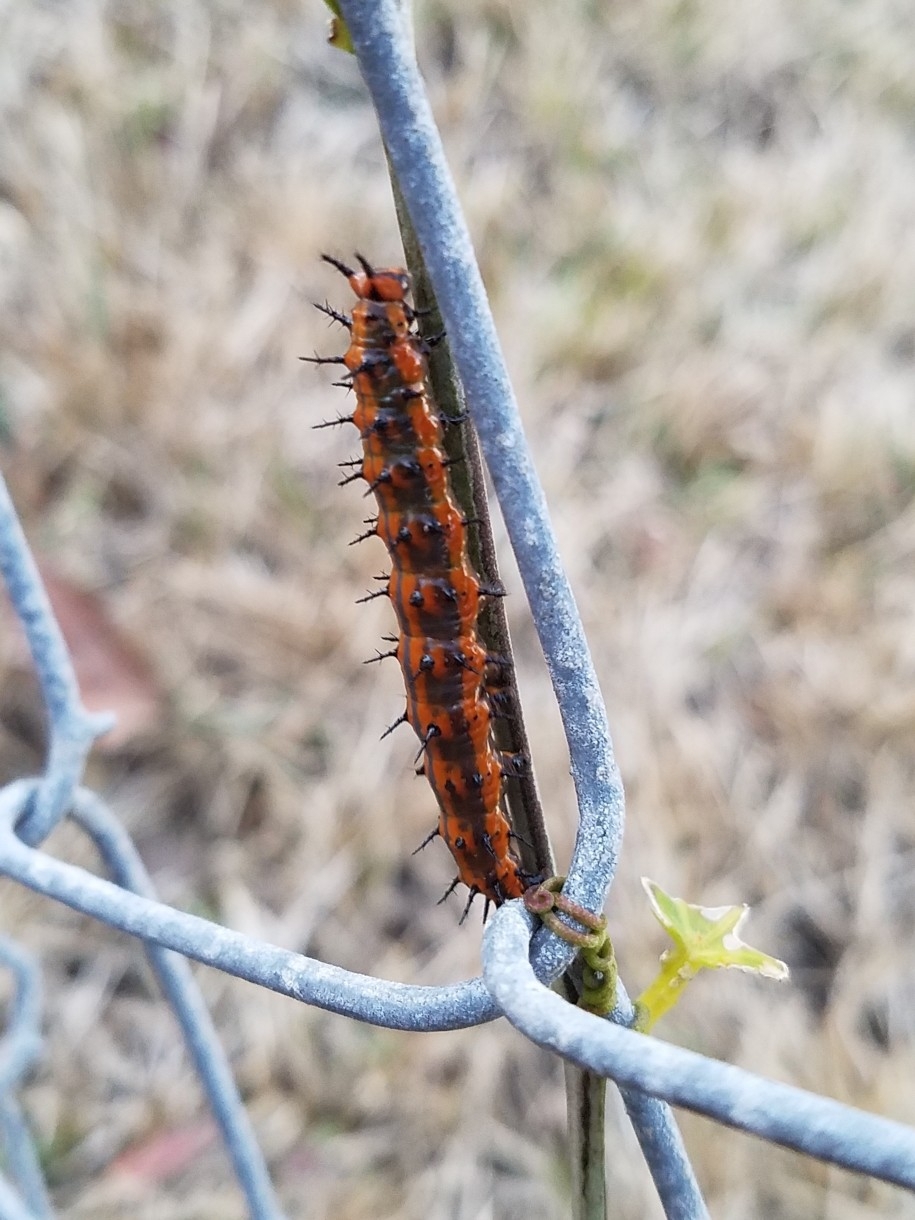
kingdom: Animalia
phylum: Arthropoda
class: Insecta
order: Lepidoptera
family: Nymphalidae
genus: Dione
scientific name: Dione vanillae
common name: Gulf fritillary
